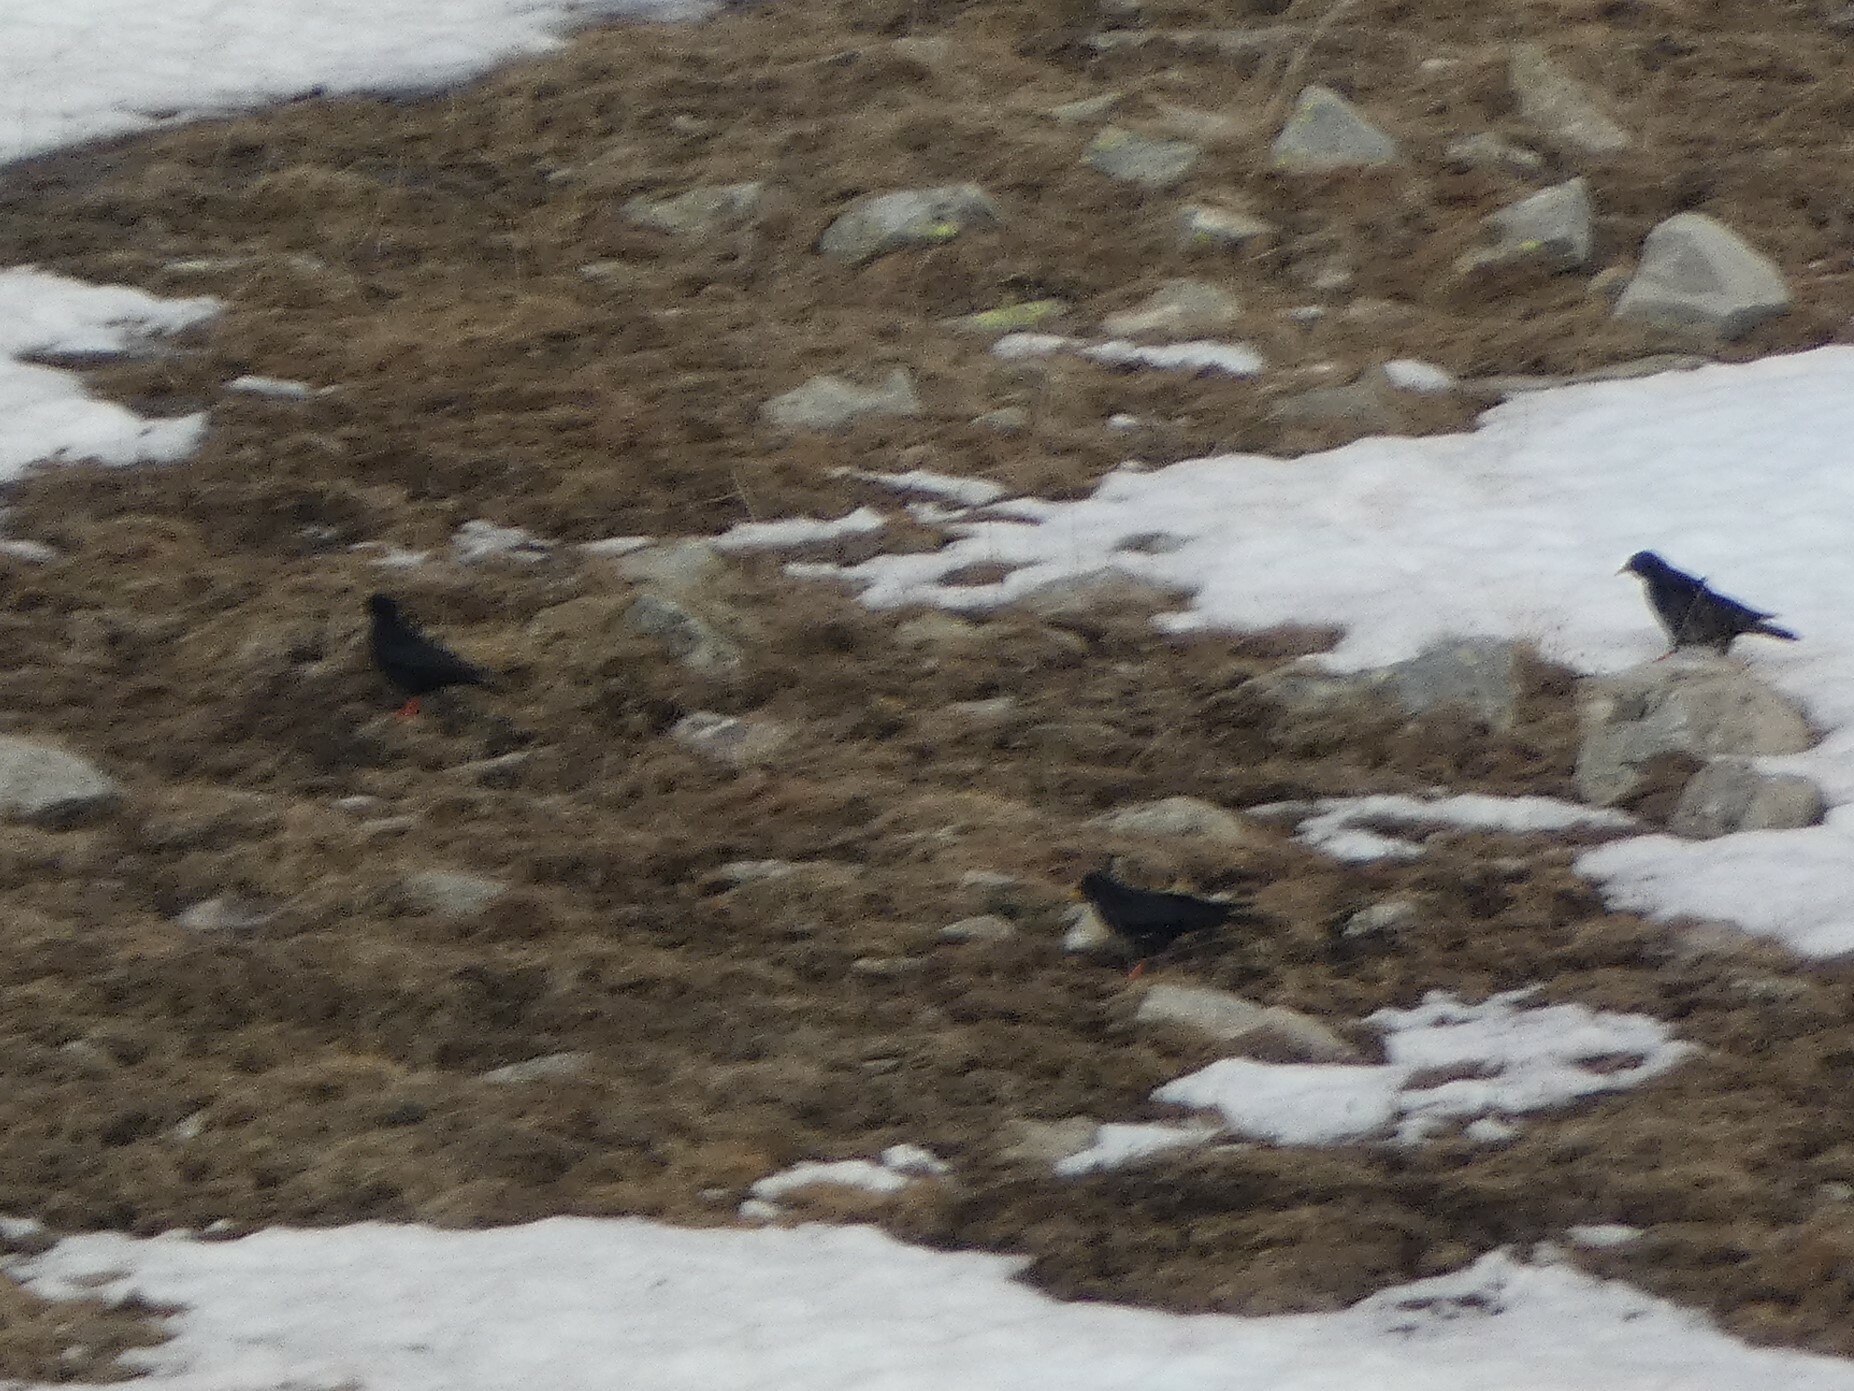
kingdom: Animalia
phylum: Chordata
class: Aves
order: Passeriformes
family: Corvidae
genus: Pyrrhocorax
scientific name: Pyrrhocorax graculus
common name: Alpine chough
